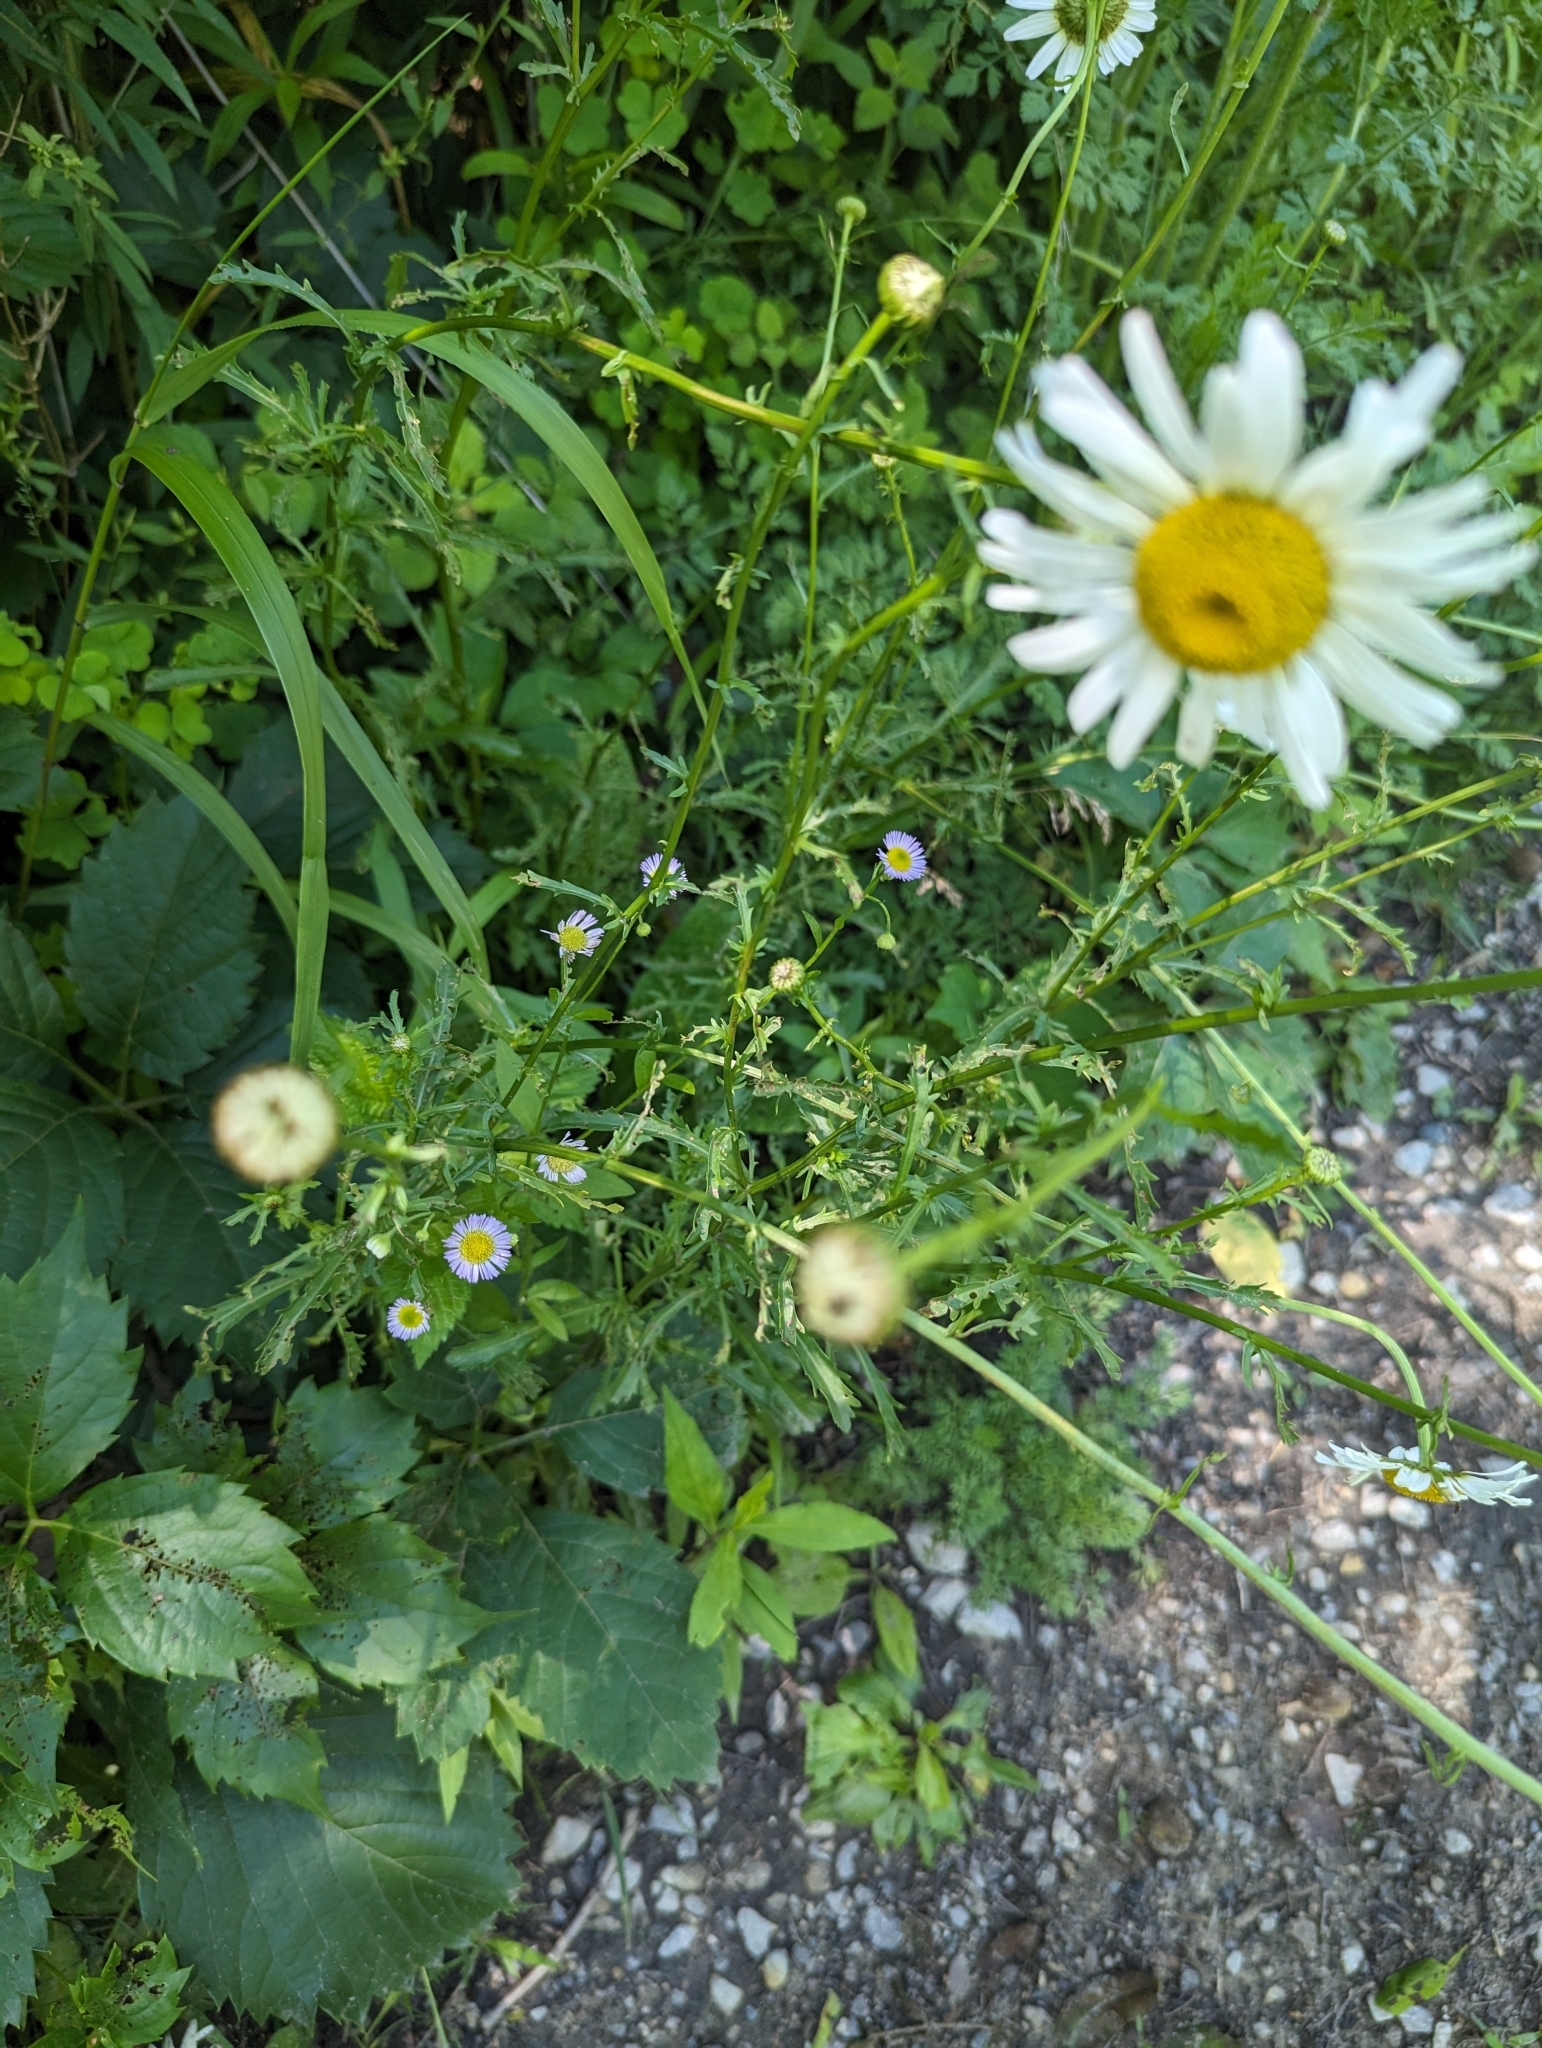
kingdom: Plantae
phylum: Tracheophyta
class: Magnoliopsida
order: Asterales
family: Asteraceae
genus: Leucanthemum
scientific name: Leucanthemum vulgare
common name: Oxeye daisy
